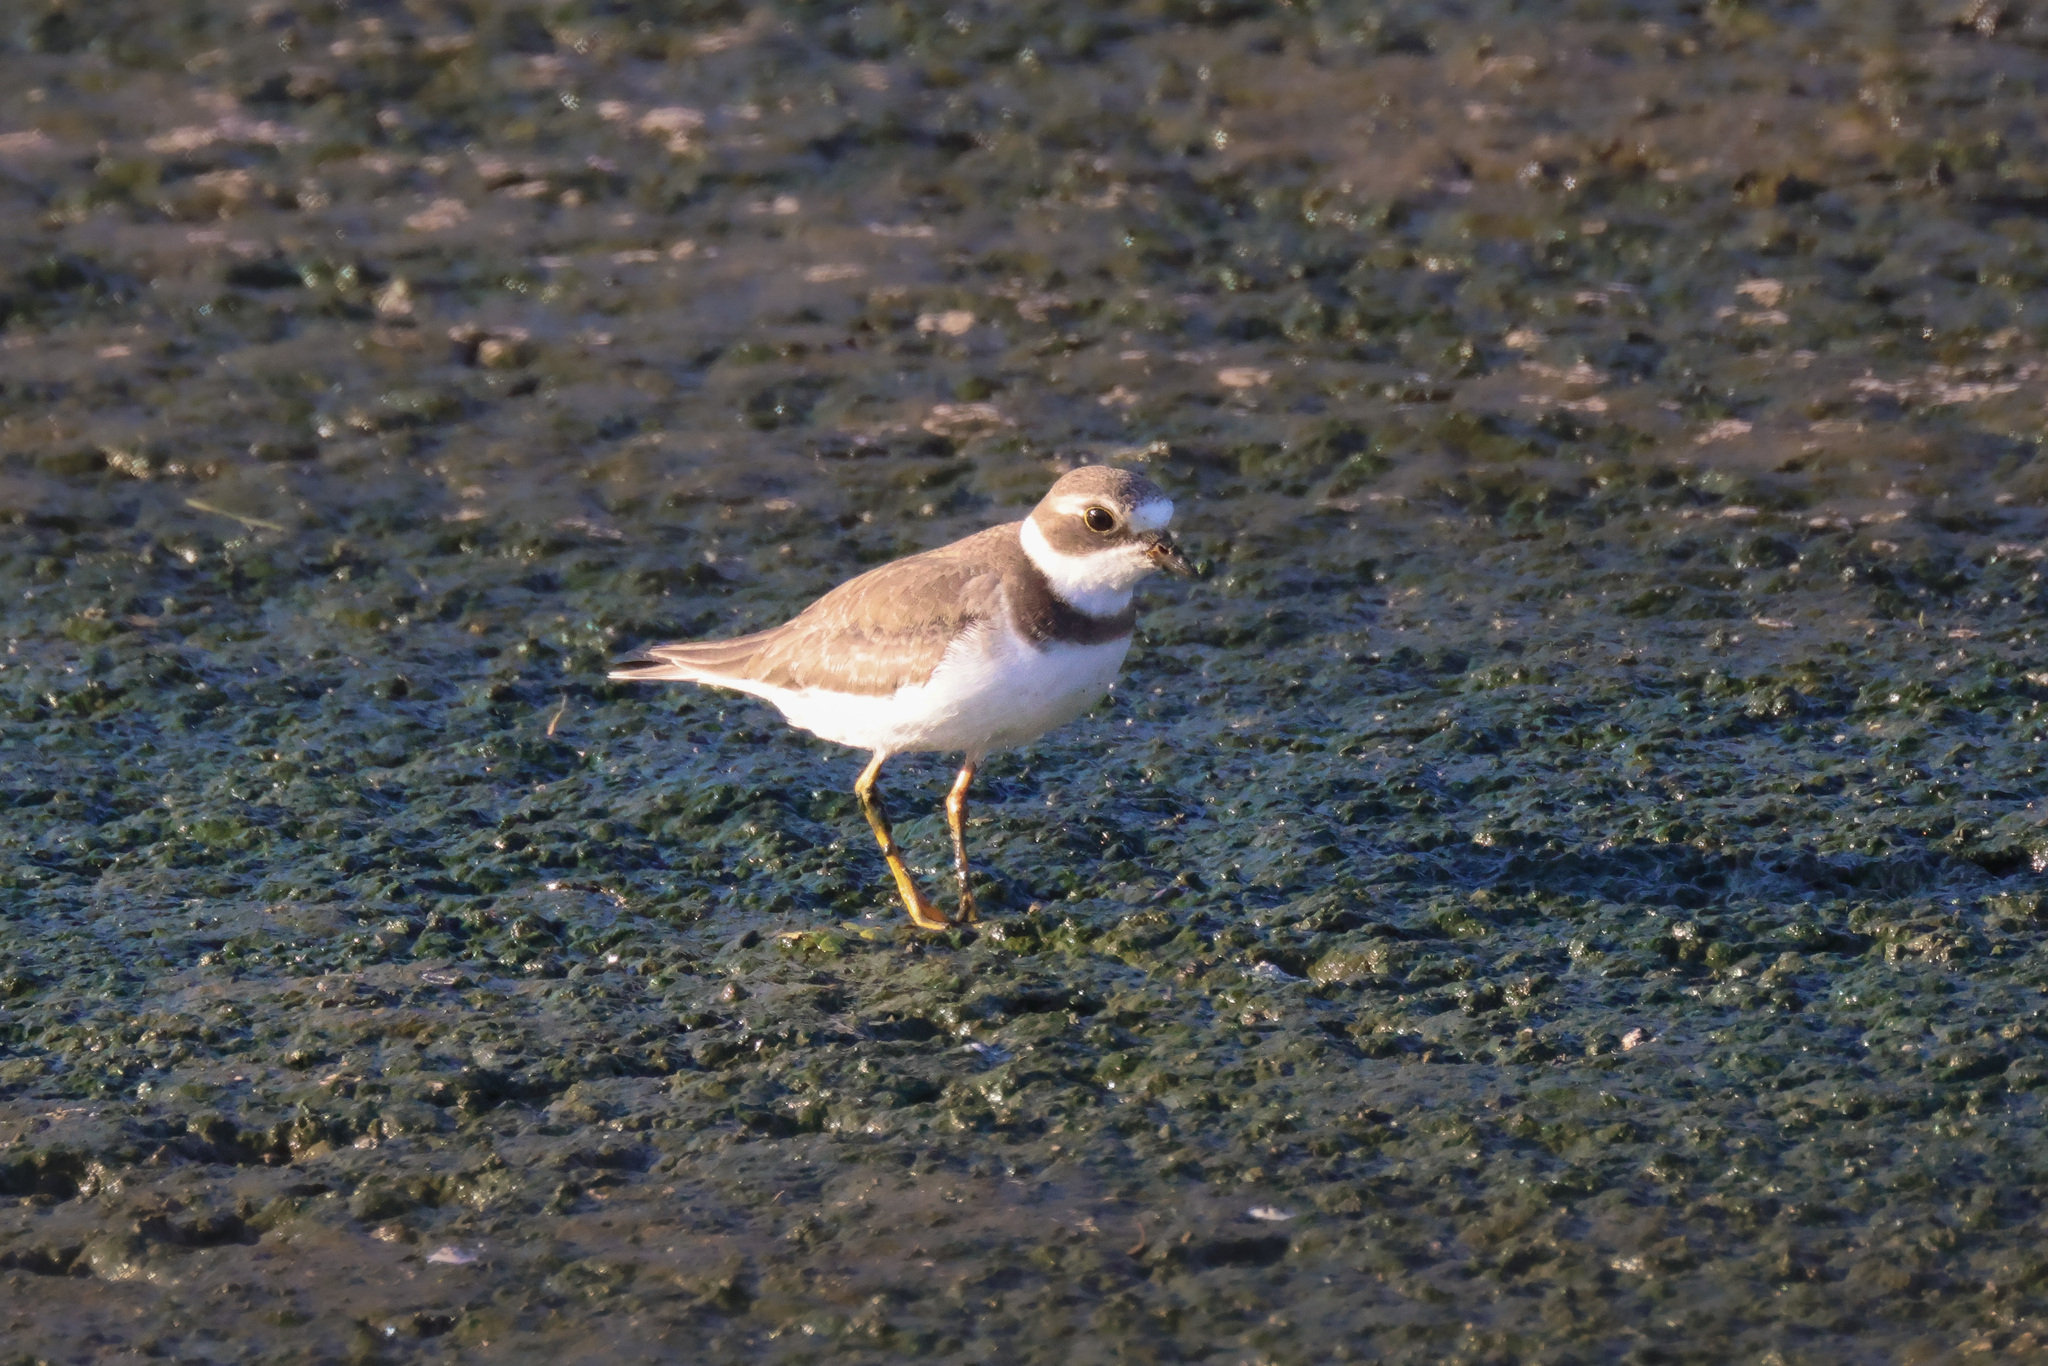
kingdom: Animalia
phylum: Chordata
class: Aves
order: Charadriiformes
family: Charadriidae
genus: Charadrius
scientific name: Charadrius semipalmatus
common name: Semipalmated plover
